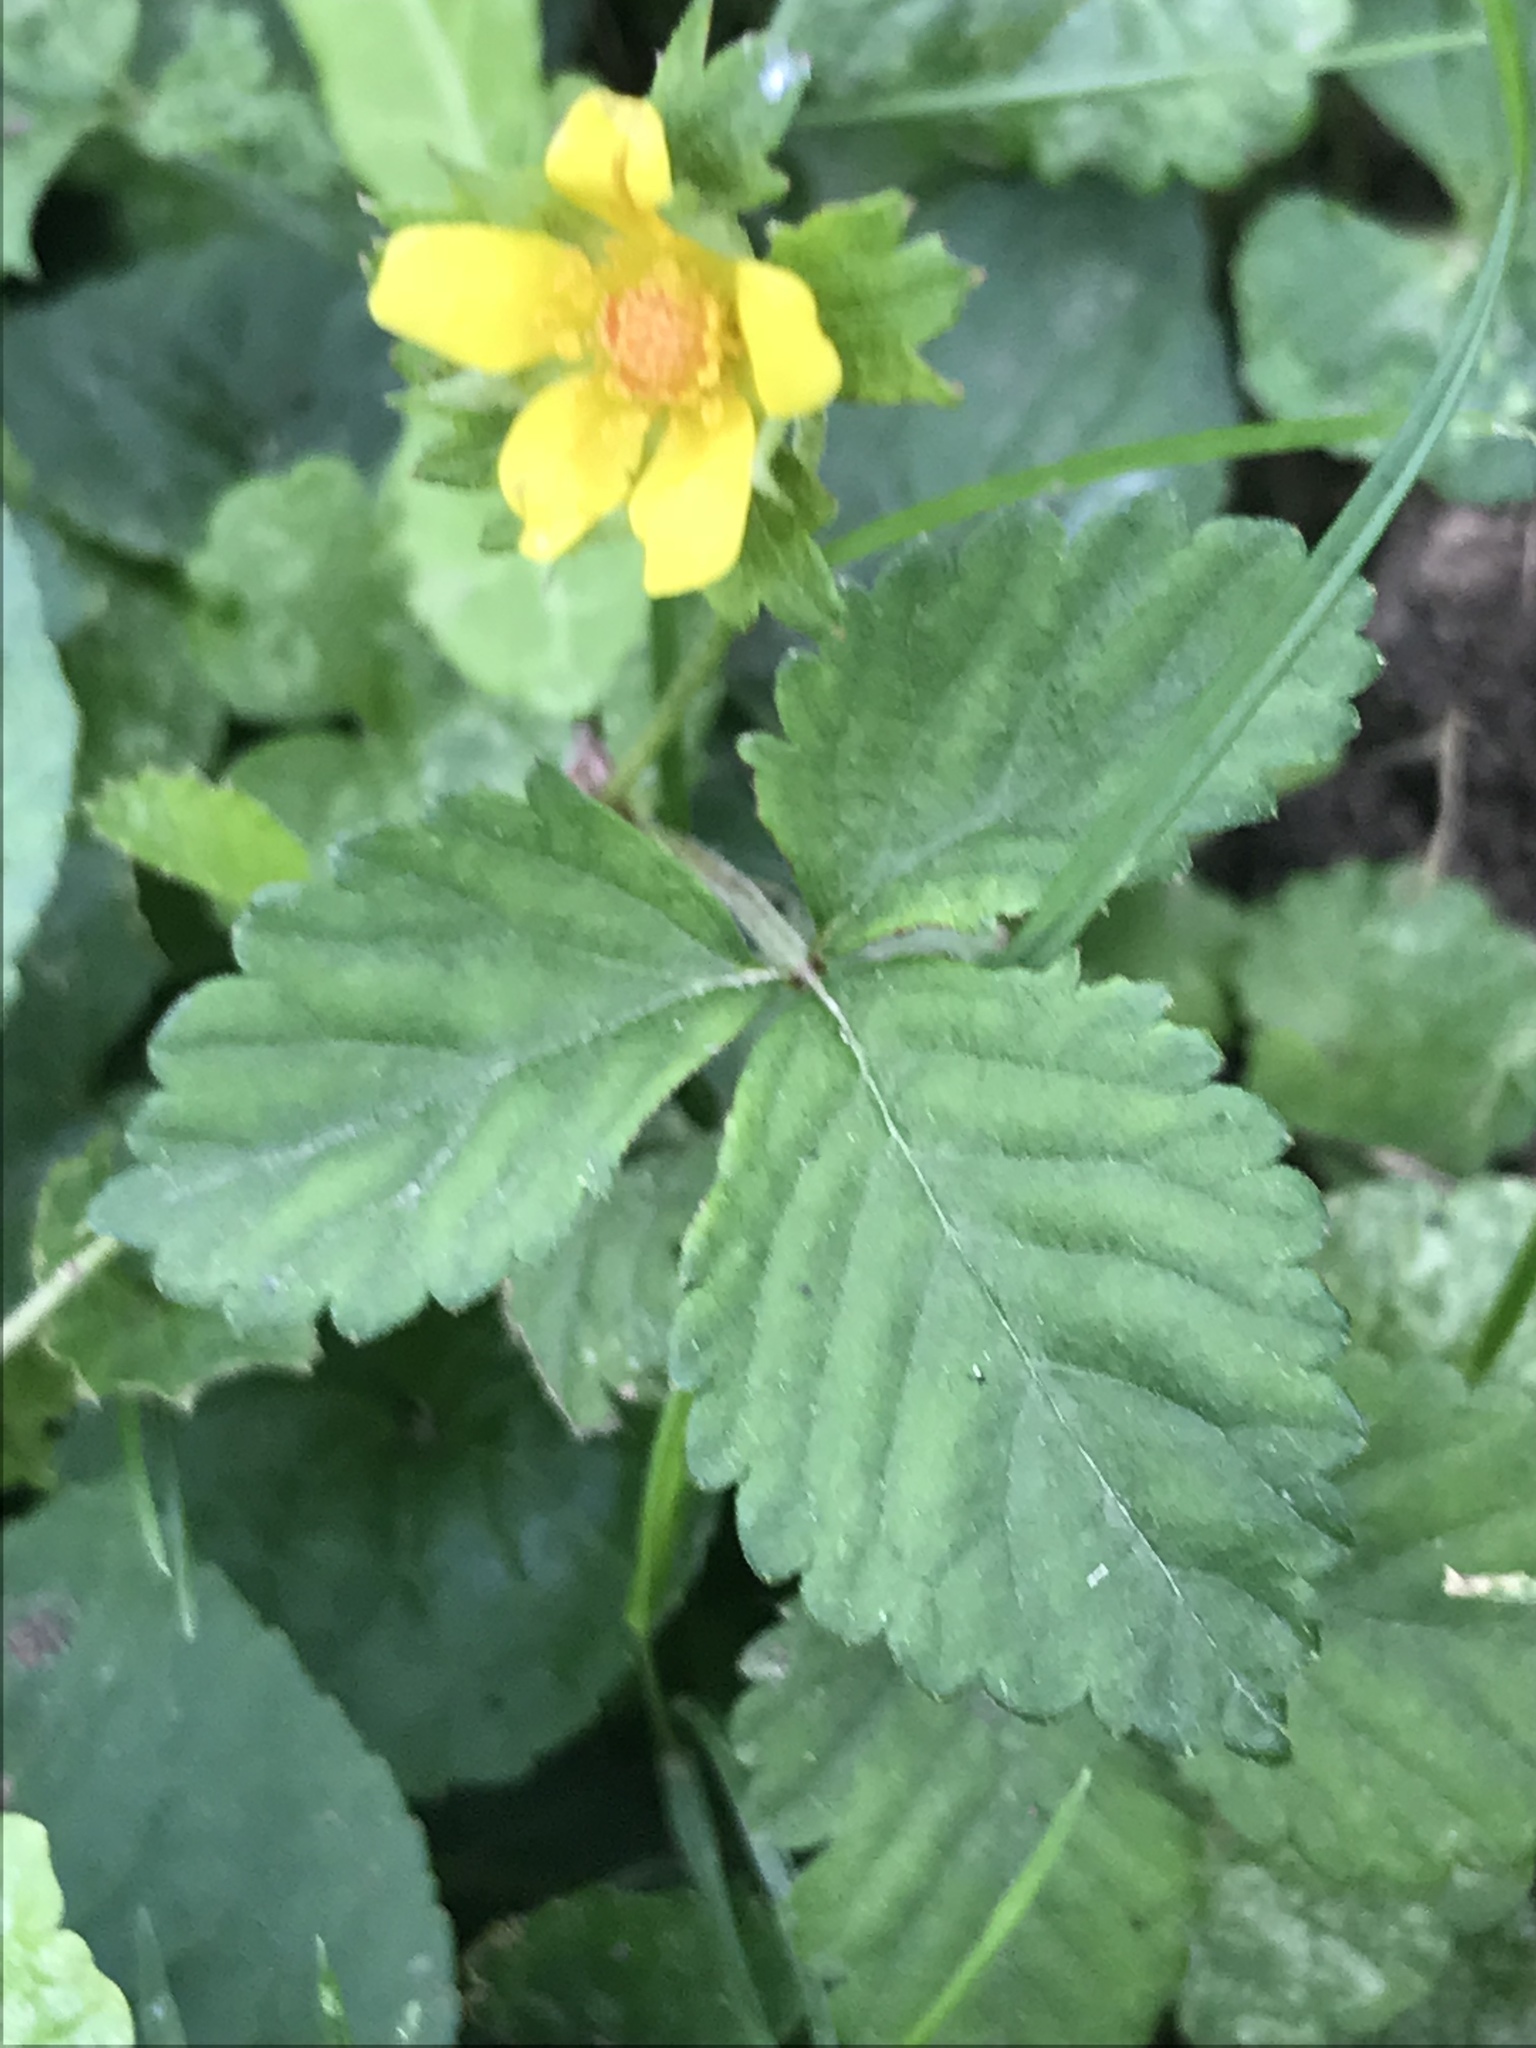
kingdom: Plantae
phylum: Tracheophyta
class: Magnoliopsida
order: Rosales
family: Rosaceae
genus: Potentilla
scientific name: Potentilla indica
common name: Yellow-flowered strawberry
